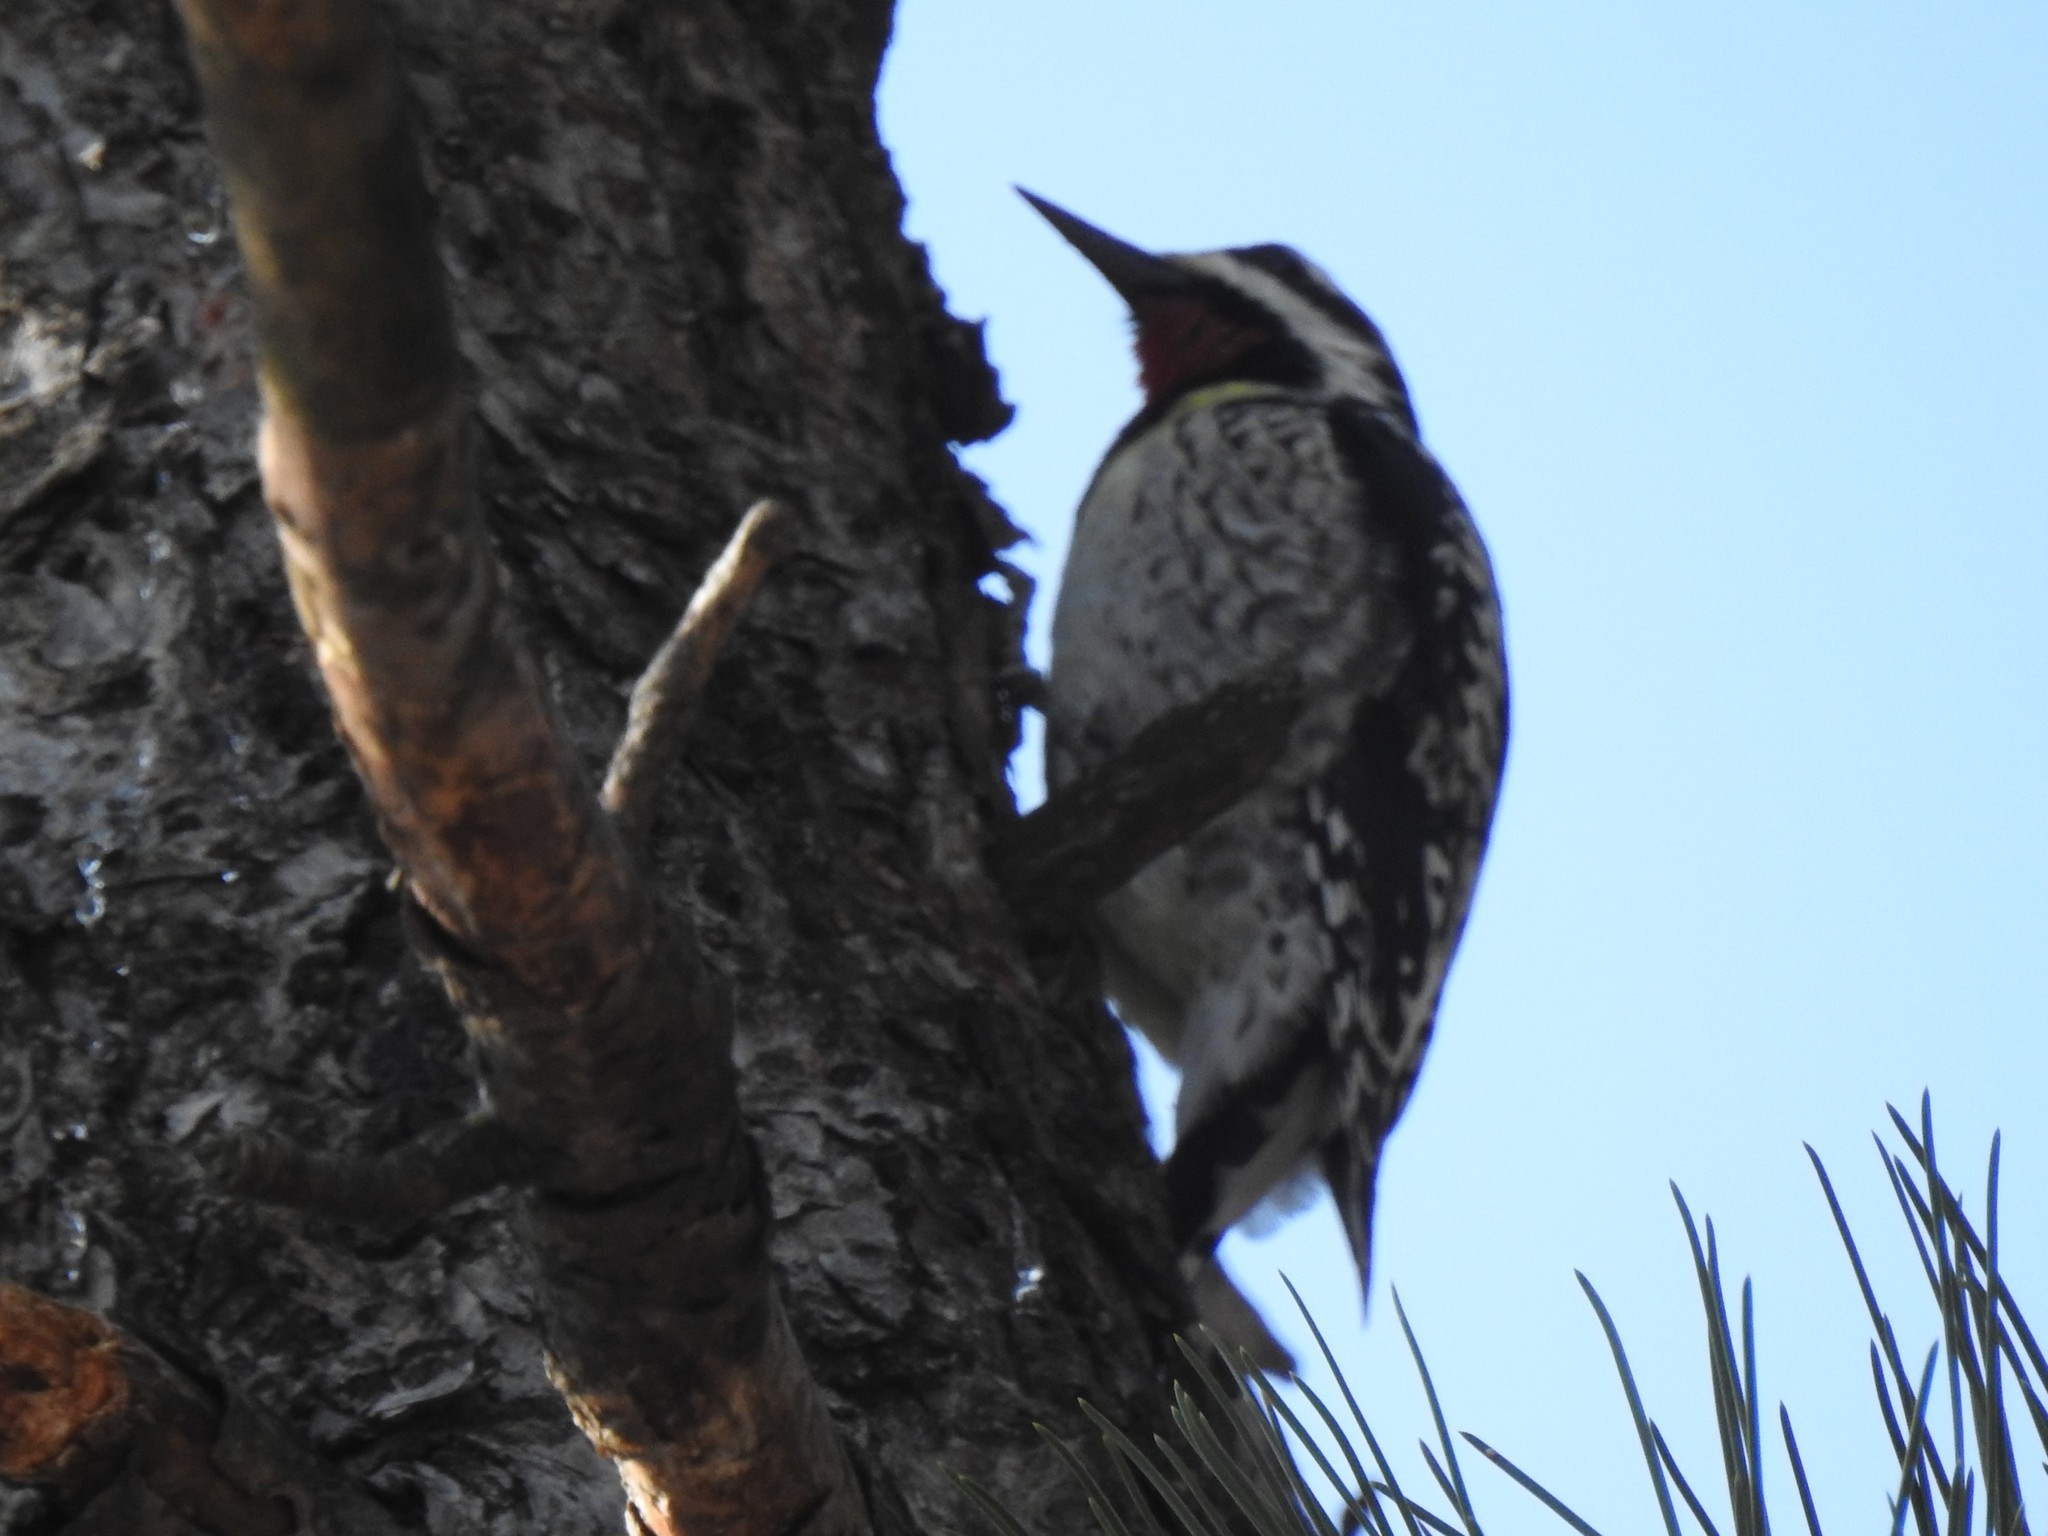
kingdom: Animalia
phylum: Chordata
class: Aves
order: Piciformes
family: Picidae
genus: Sphyrapicus
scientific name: Sphyrapicus varius
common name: Yellow-bellied sapsucker
